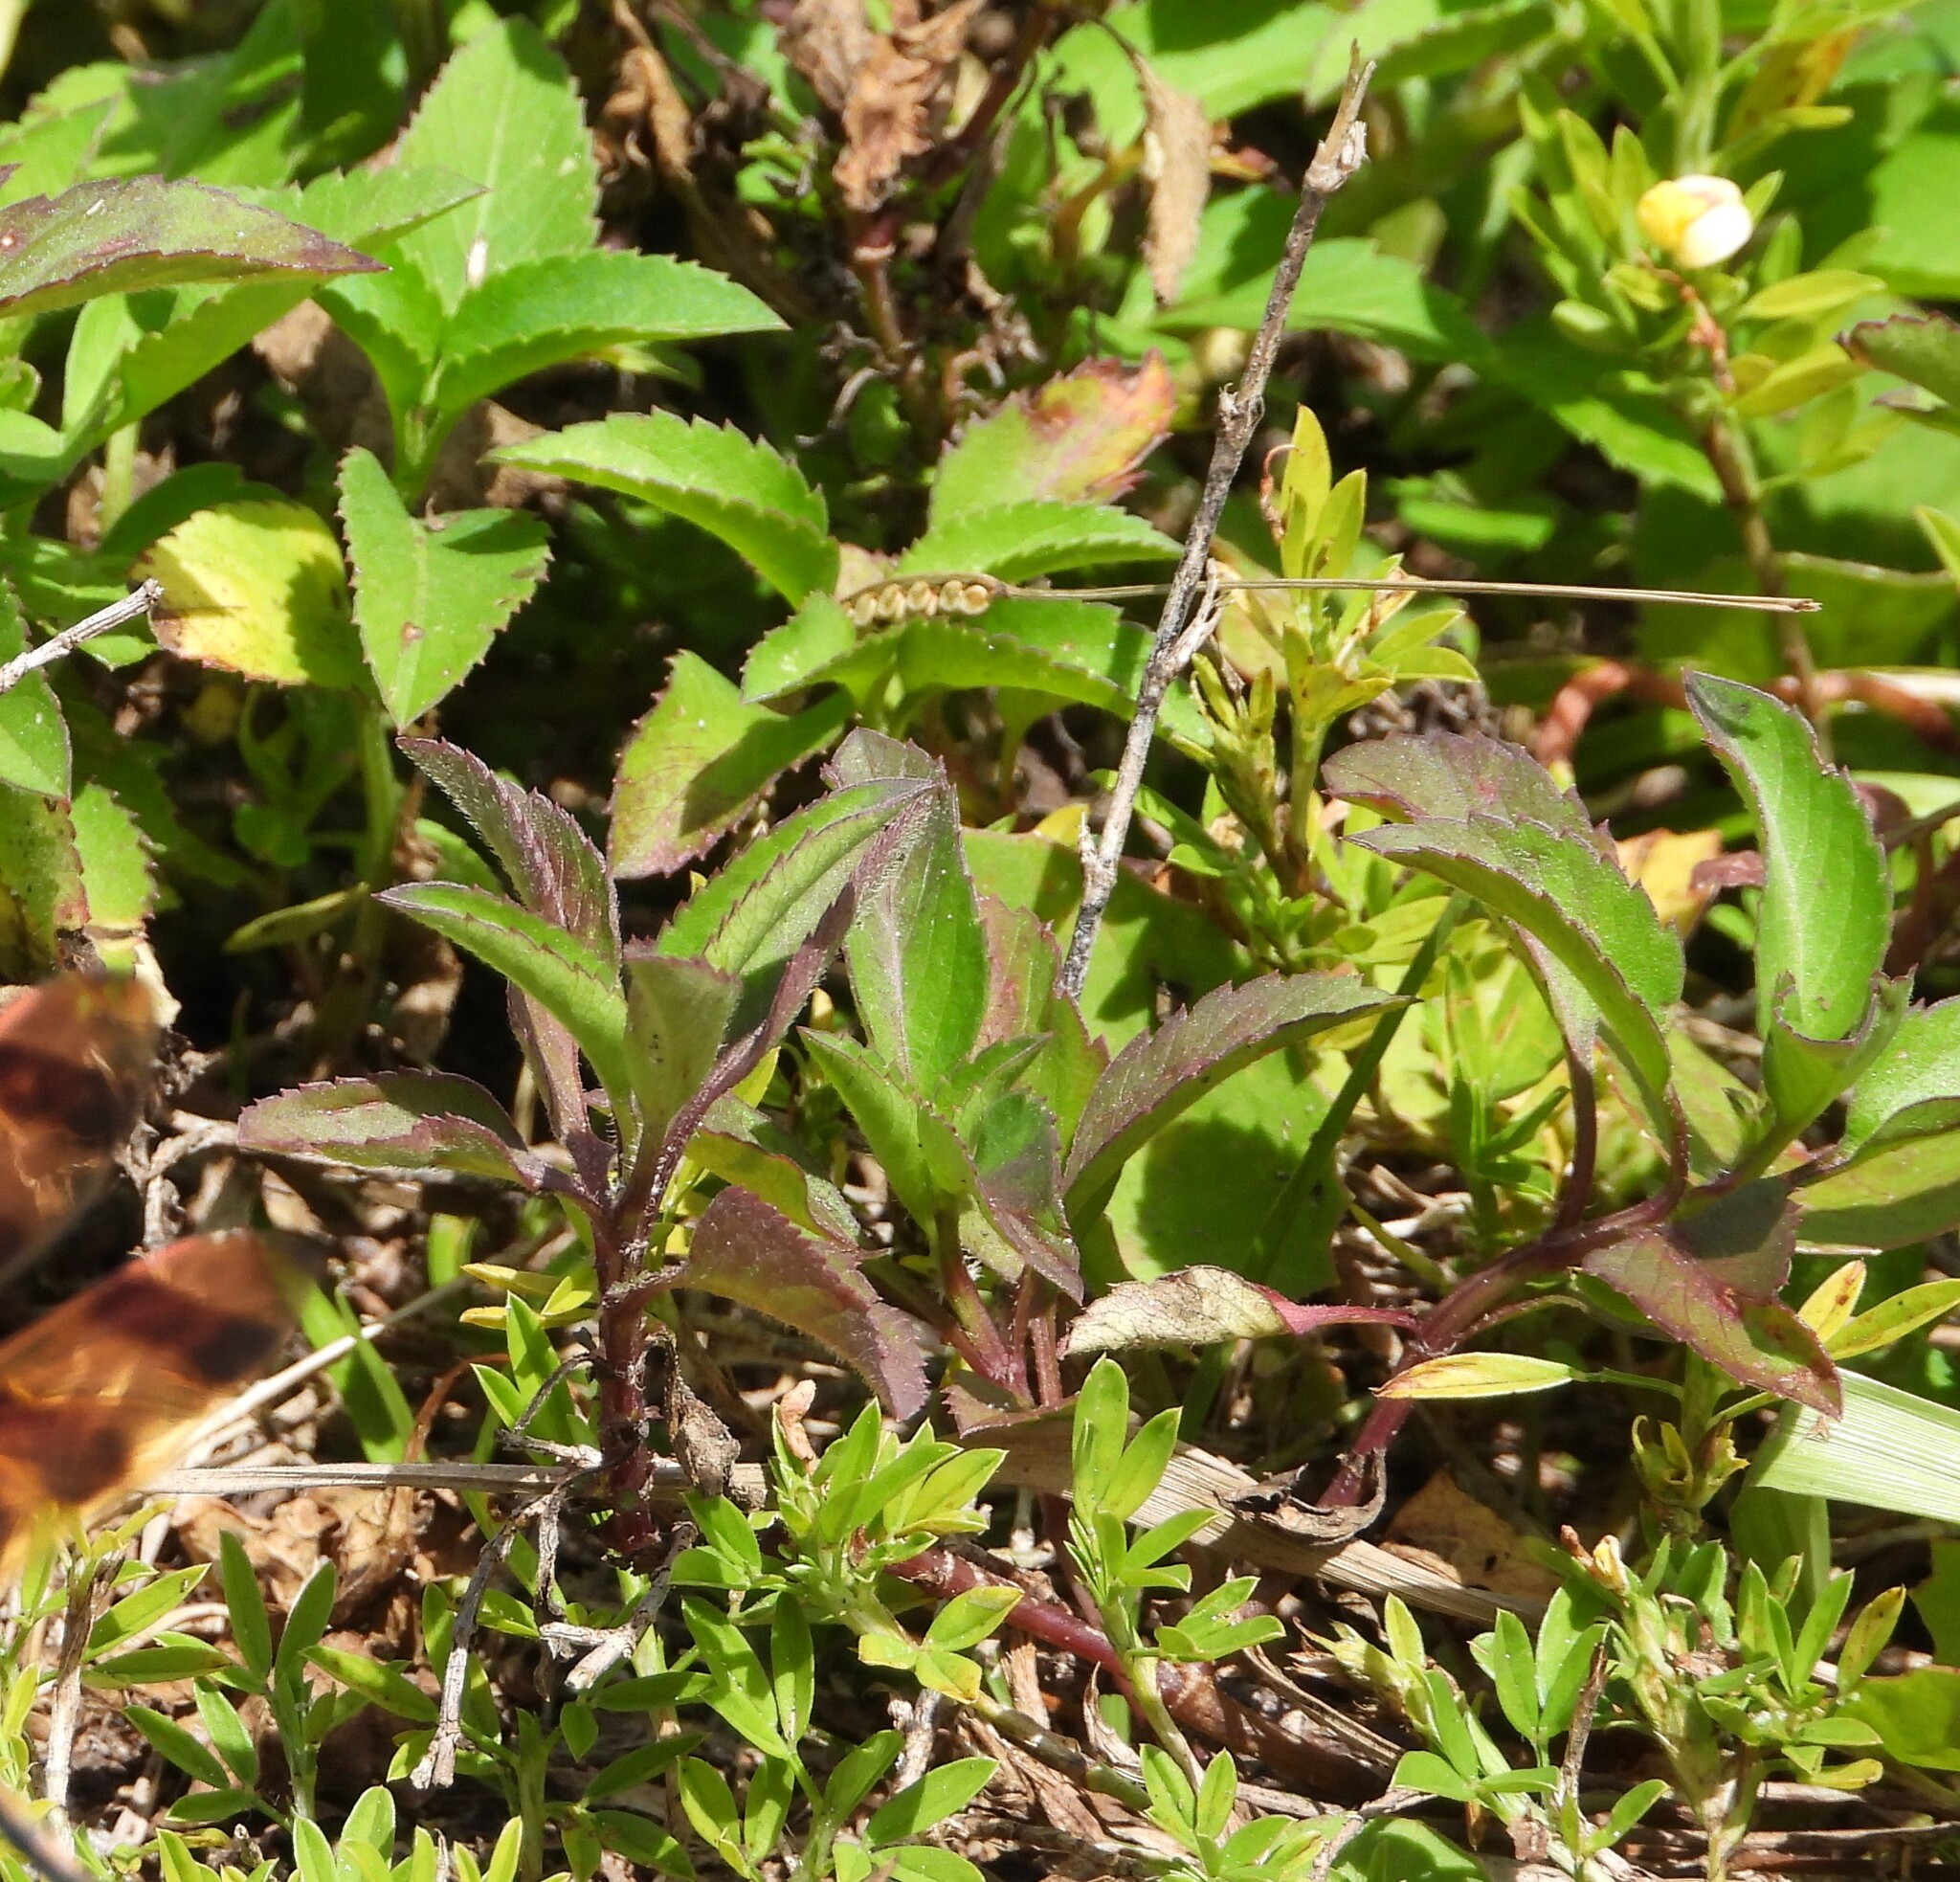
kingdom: Plantae
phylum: Tracheophyta
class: Magnoliopsida
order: Asterales
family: Asteraceae
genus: Bidens
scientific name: Bidens alba
